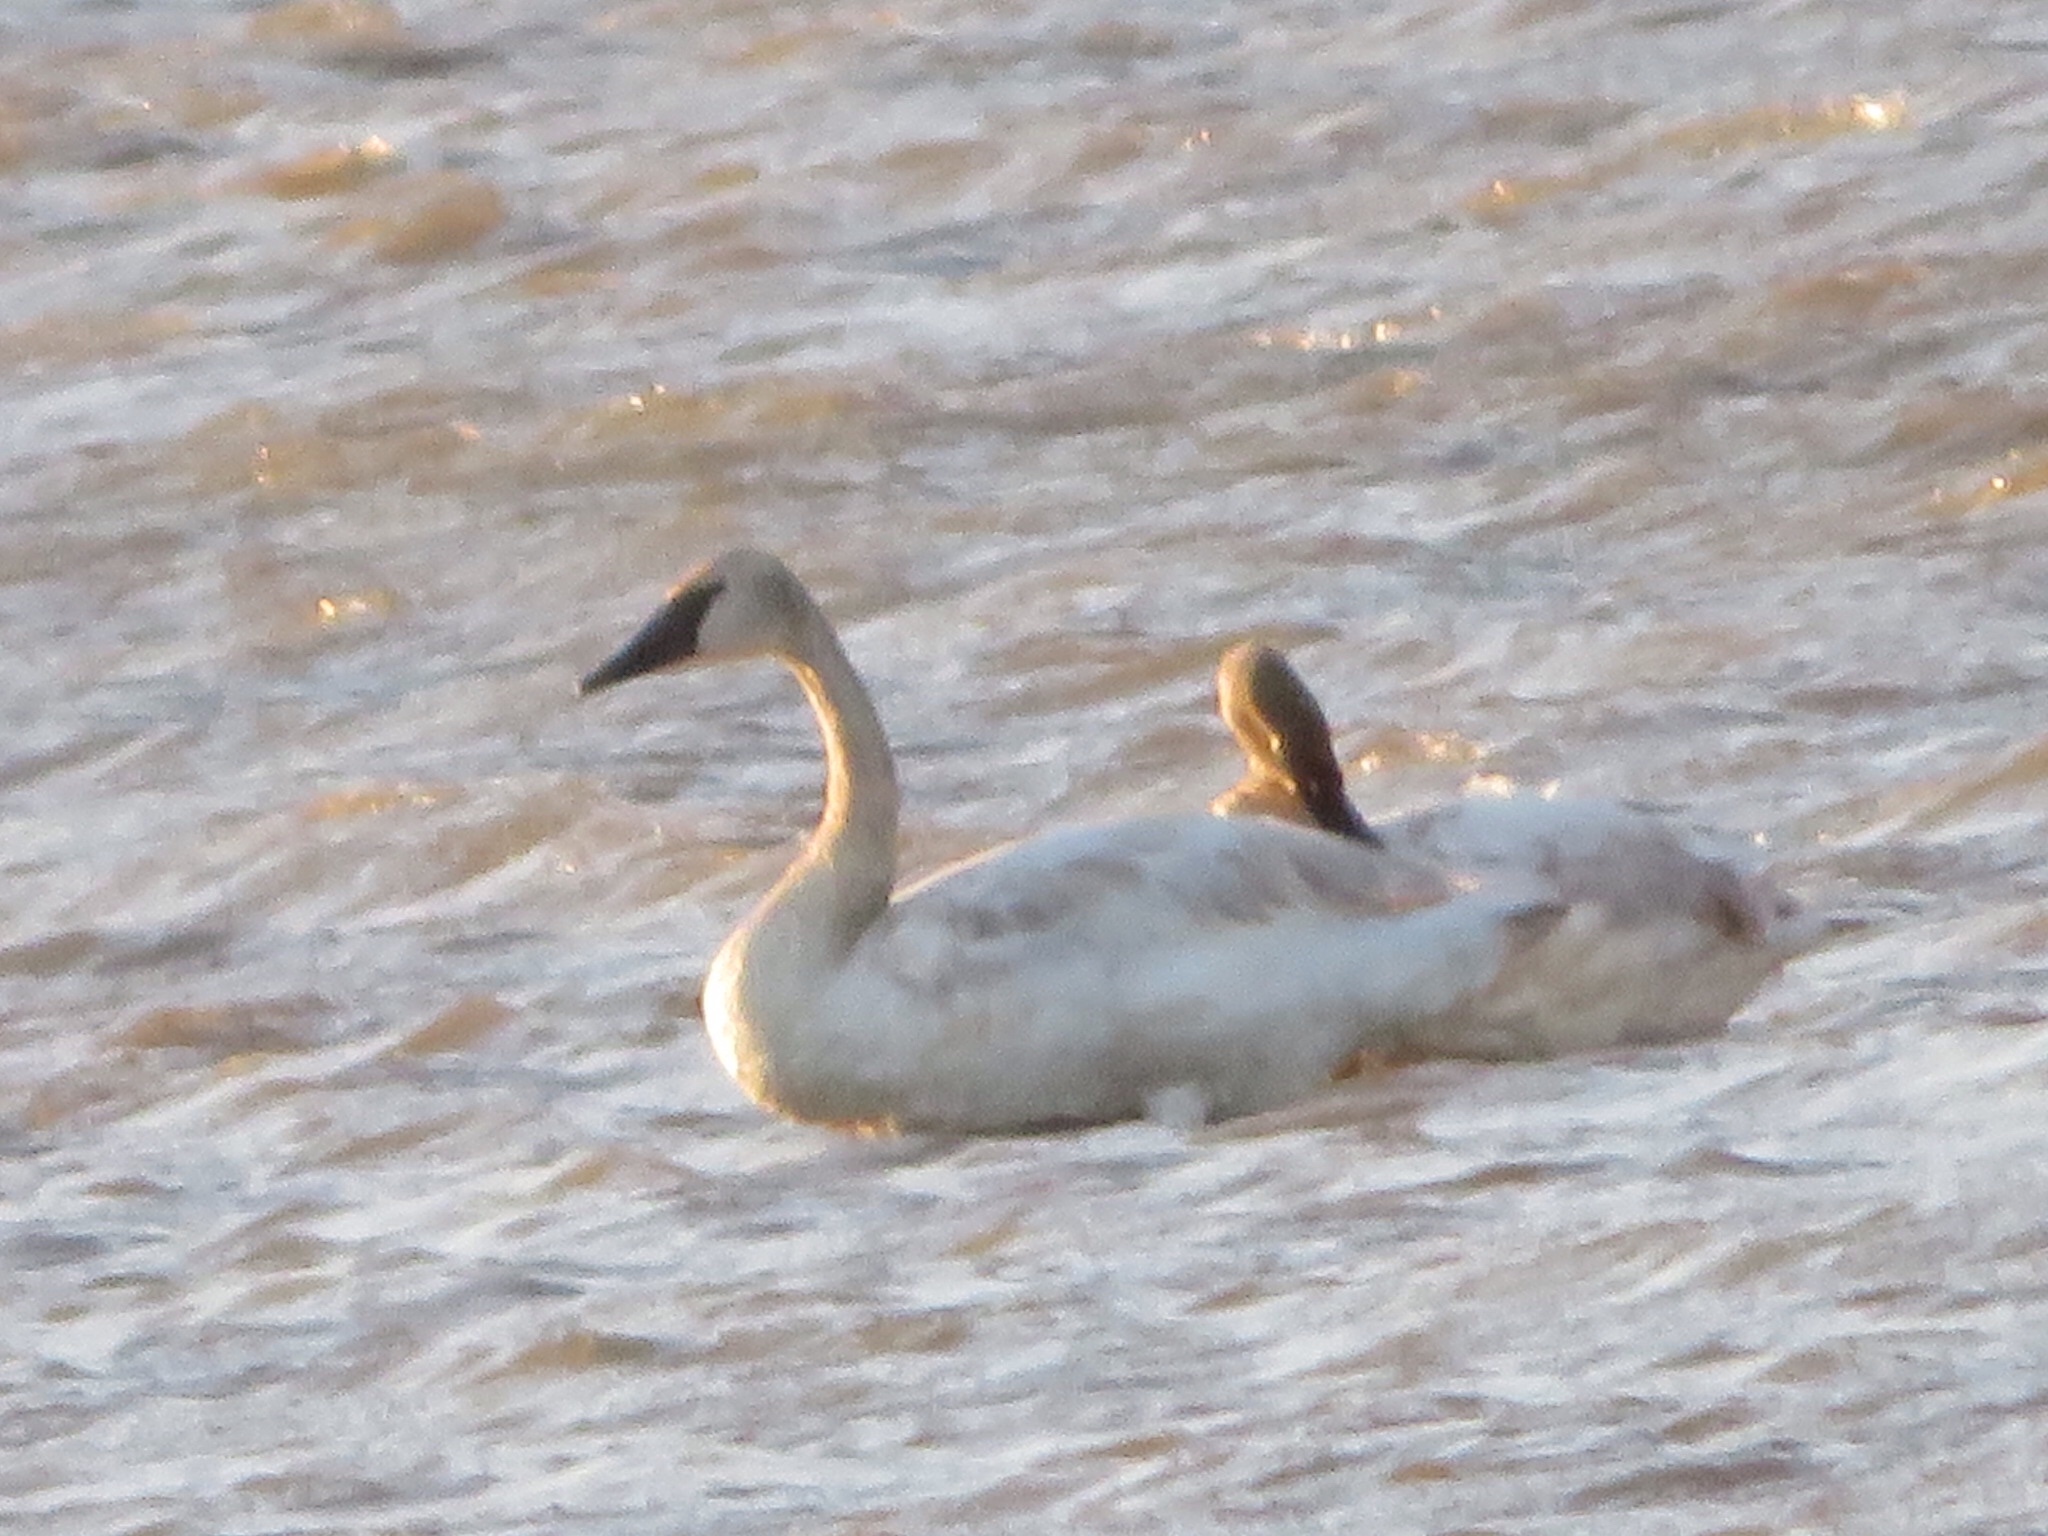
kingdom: Animalia
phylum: Chordata
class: Aves
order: Anseriformes
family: Anatidae
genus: Cygnus
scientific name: Cygnus buccinator
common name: Trumpeter swan
